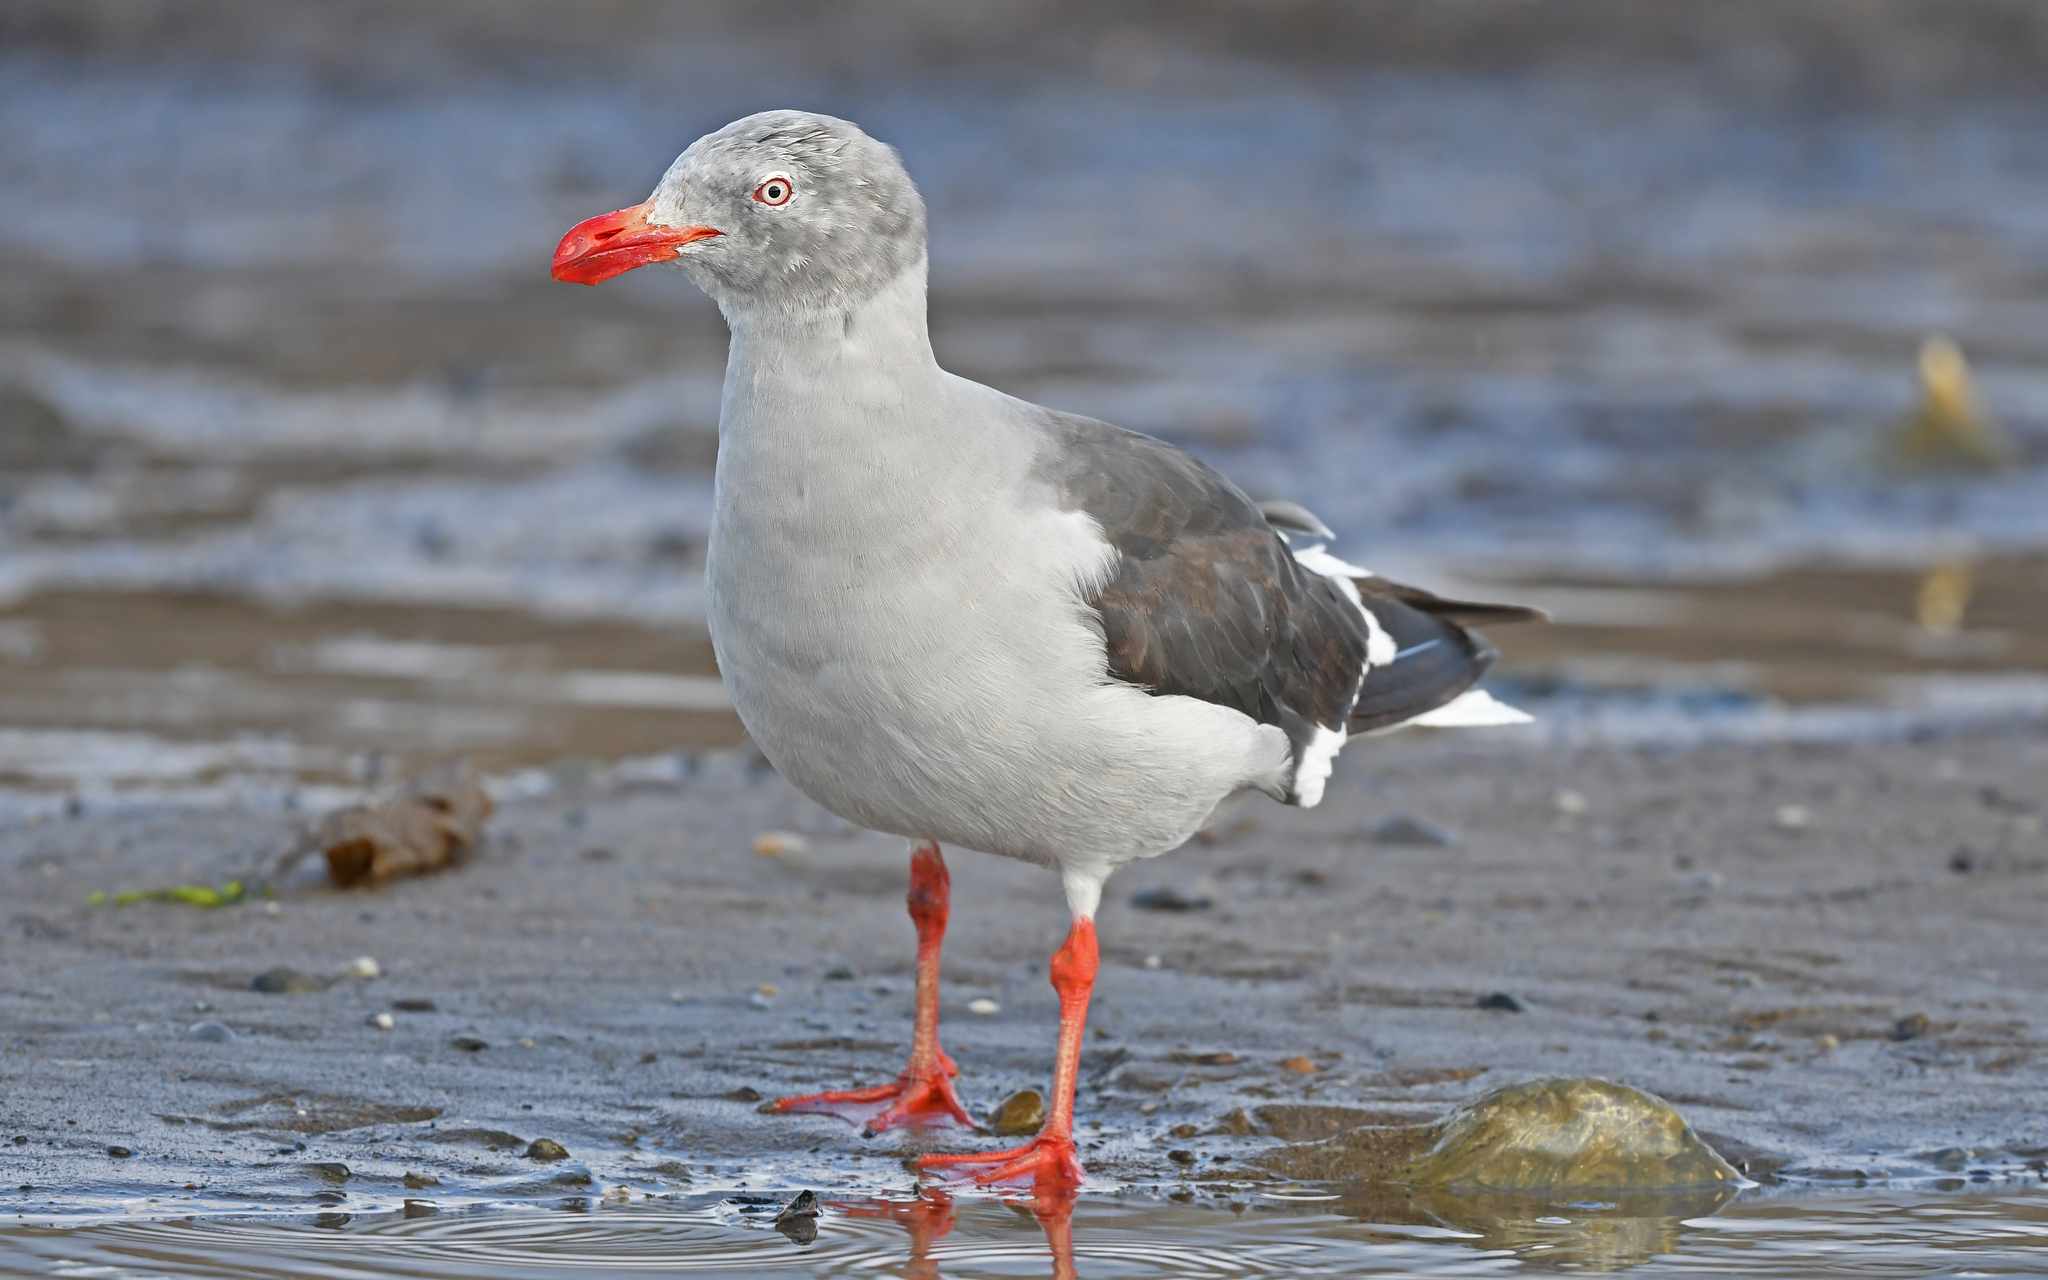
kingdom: Animalia
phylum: Chordata
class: Aves
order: Charadriiformes
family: Laridae
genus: Leucophaeus
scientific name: Leucophaeus scoresbii
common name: Dolphin gull
